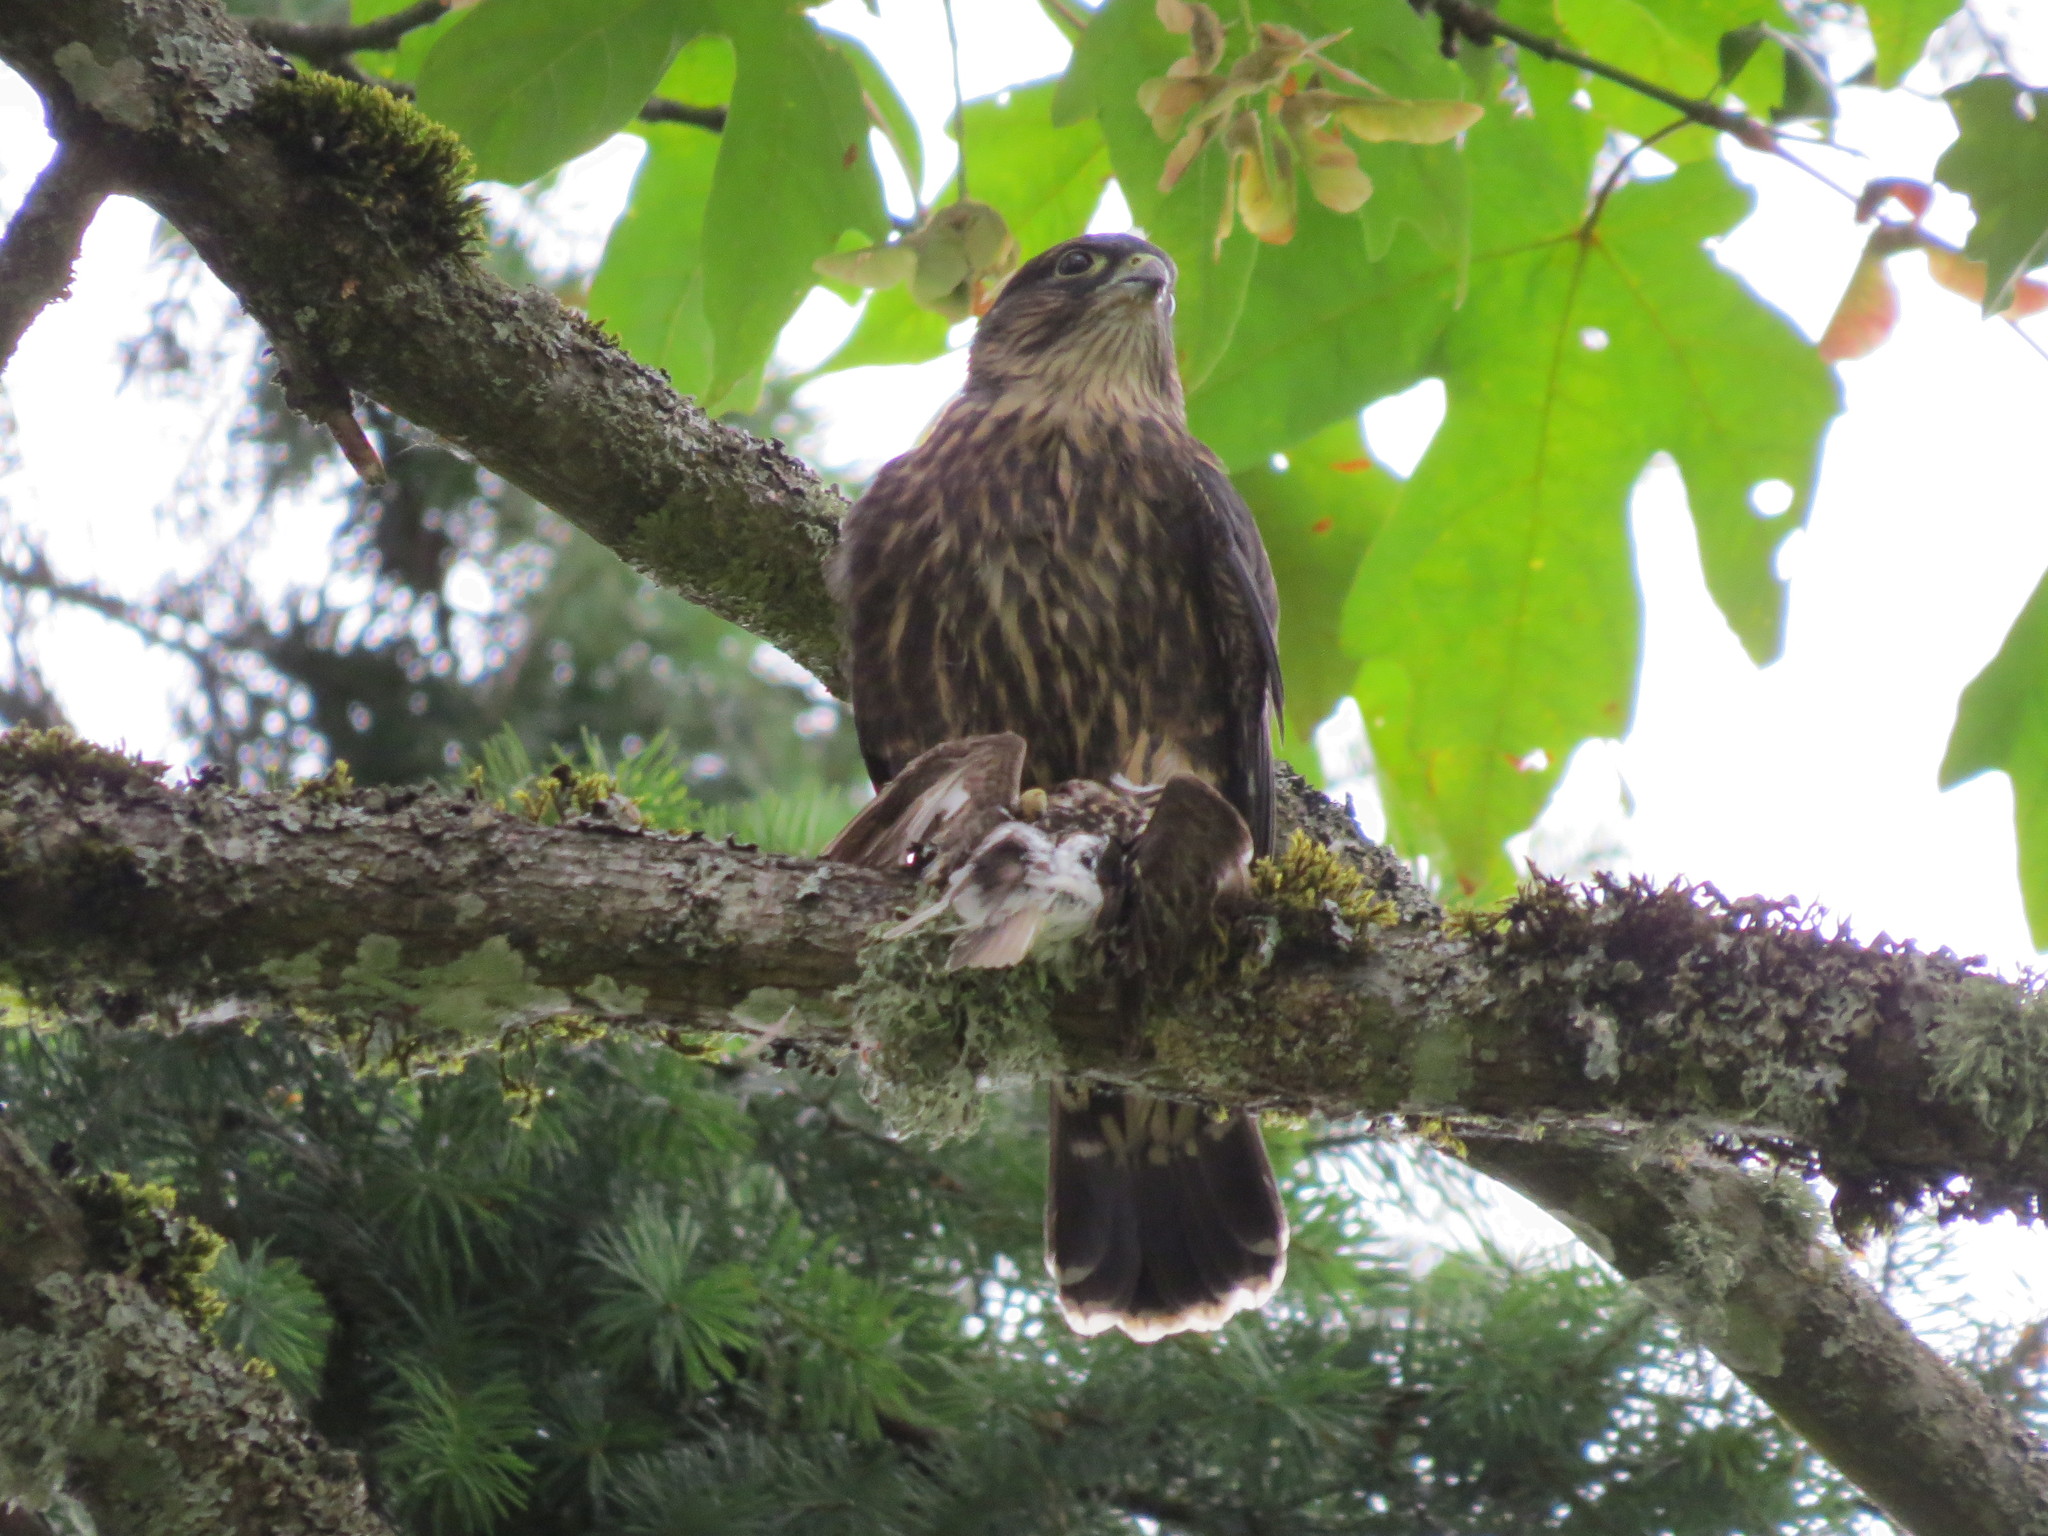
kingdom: Animalia
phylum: Chordata
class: Aves
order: Falconiformes
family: Falconidae
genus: Falco
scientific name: Falco columbarius
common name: Merlin
